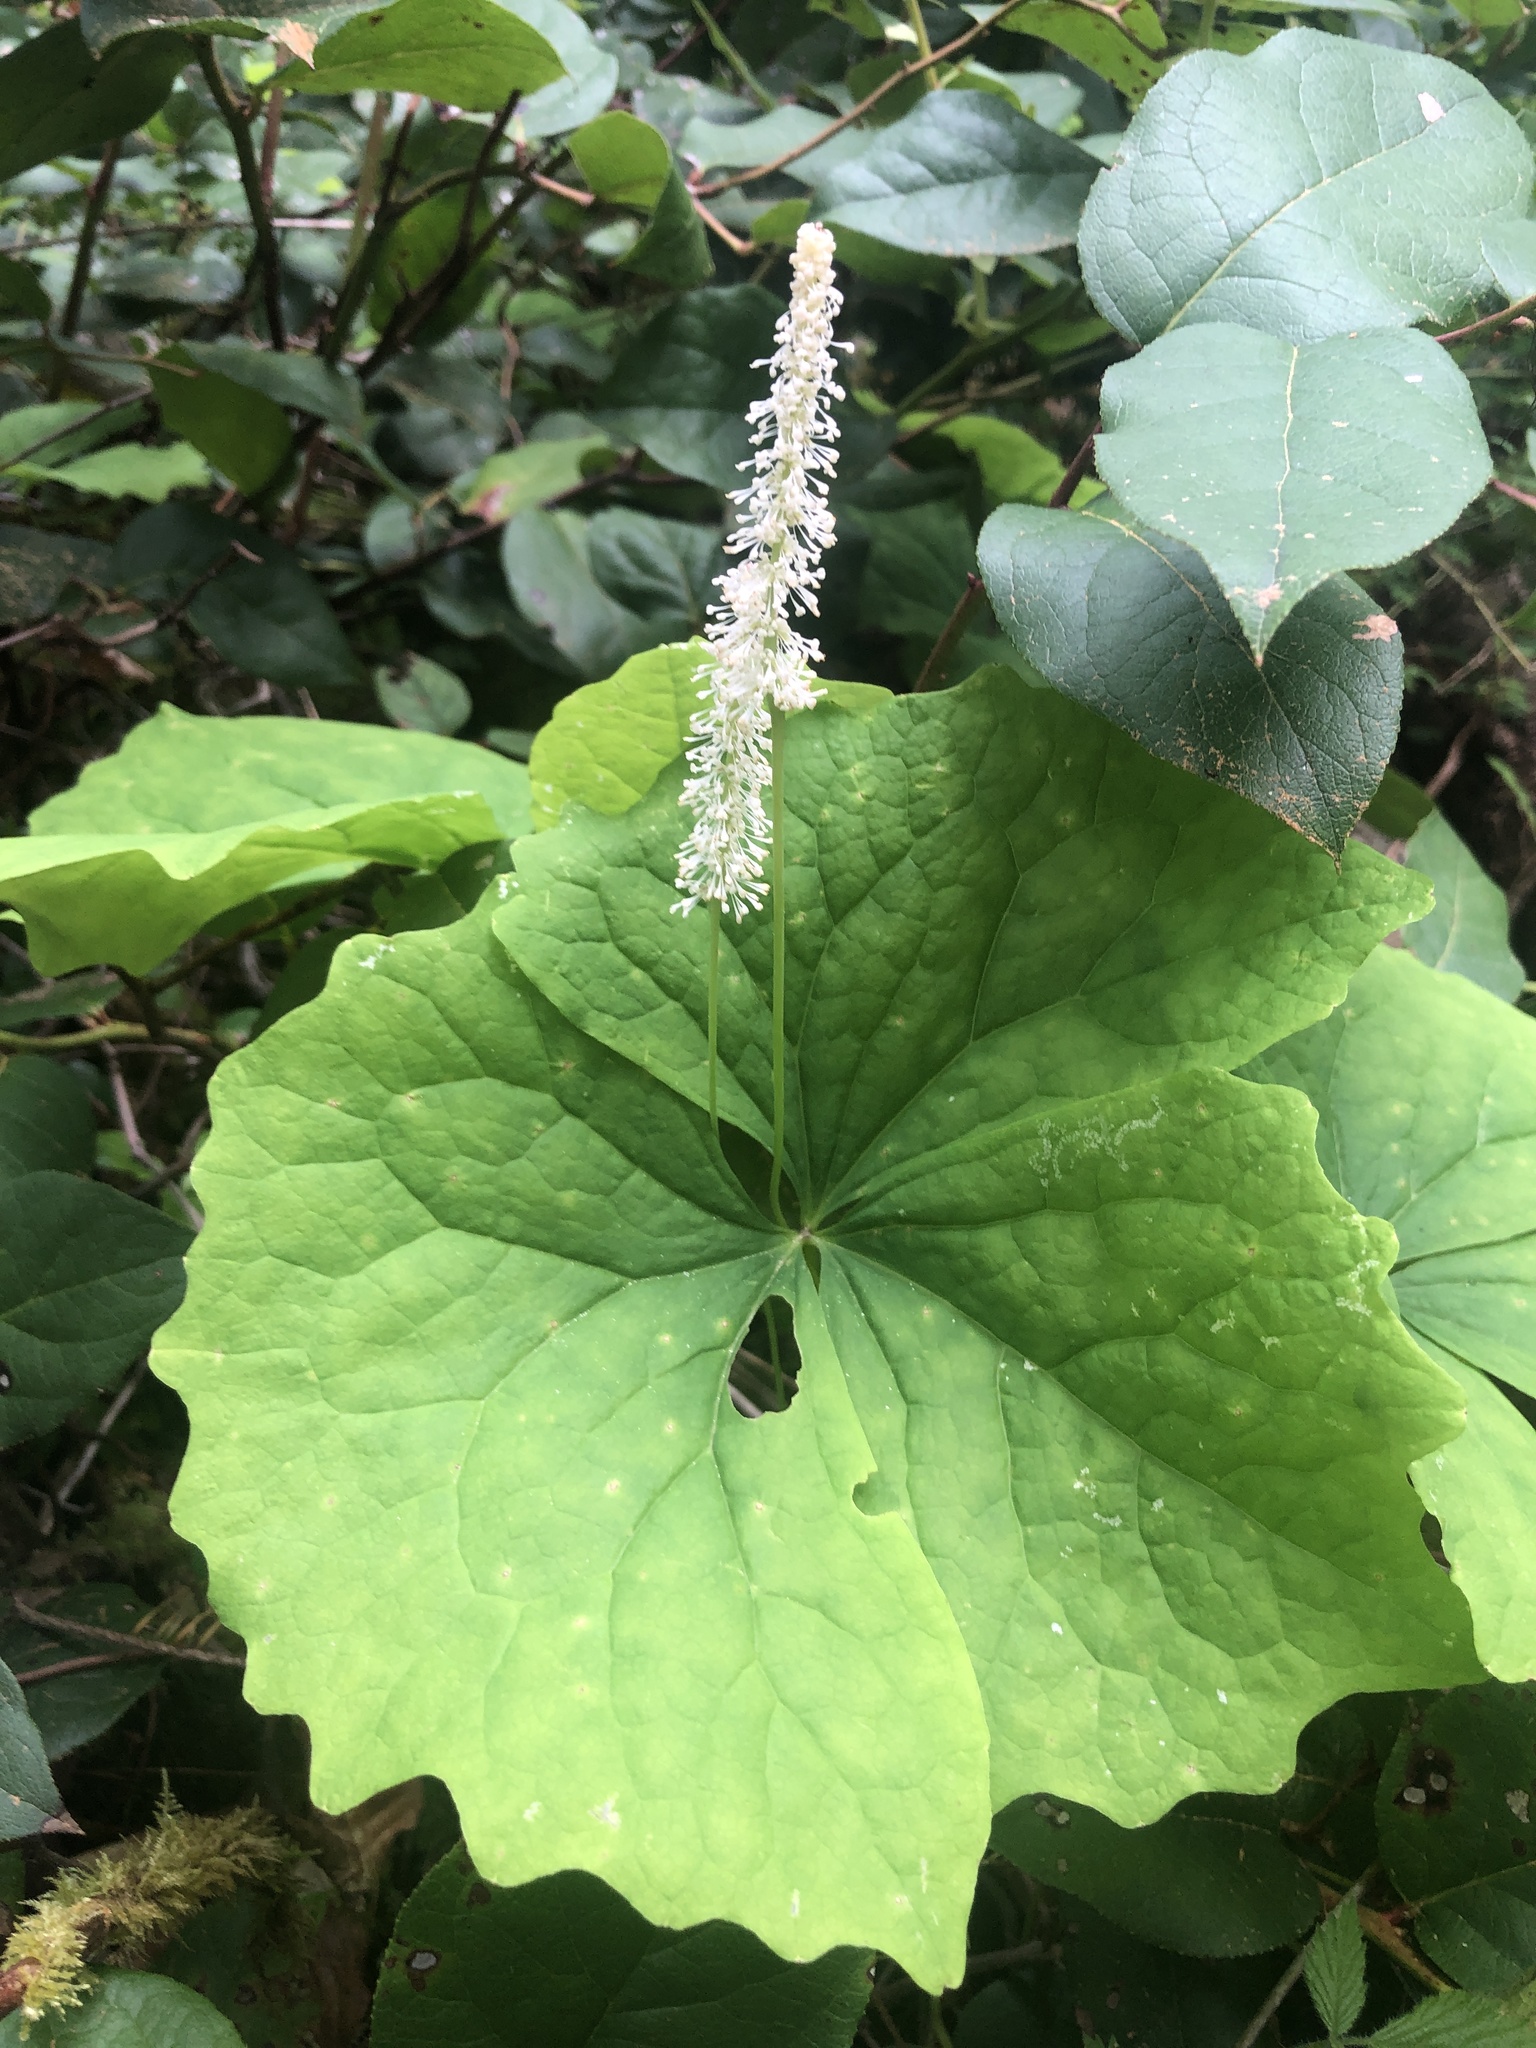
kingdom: Plantae
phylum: Tracheophyta
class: Magnoliopsida
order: Ranunculales
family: Berberidaceae
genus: Achlys
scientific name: Achlys triphylla
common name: Vanilla-leaf
